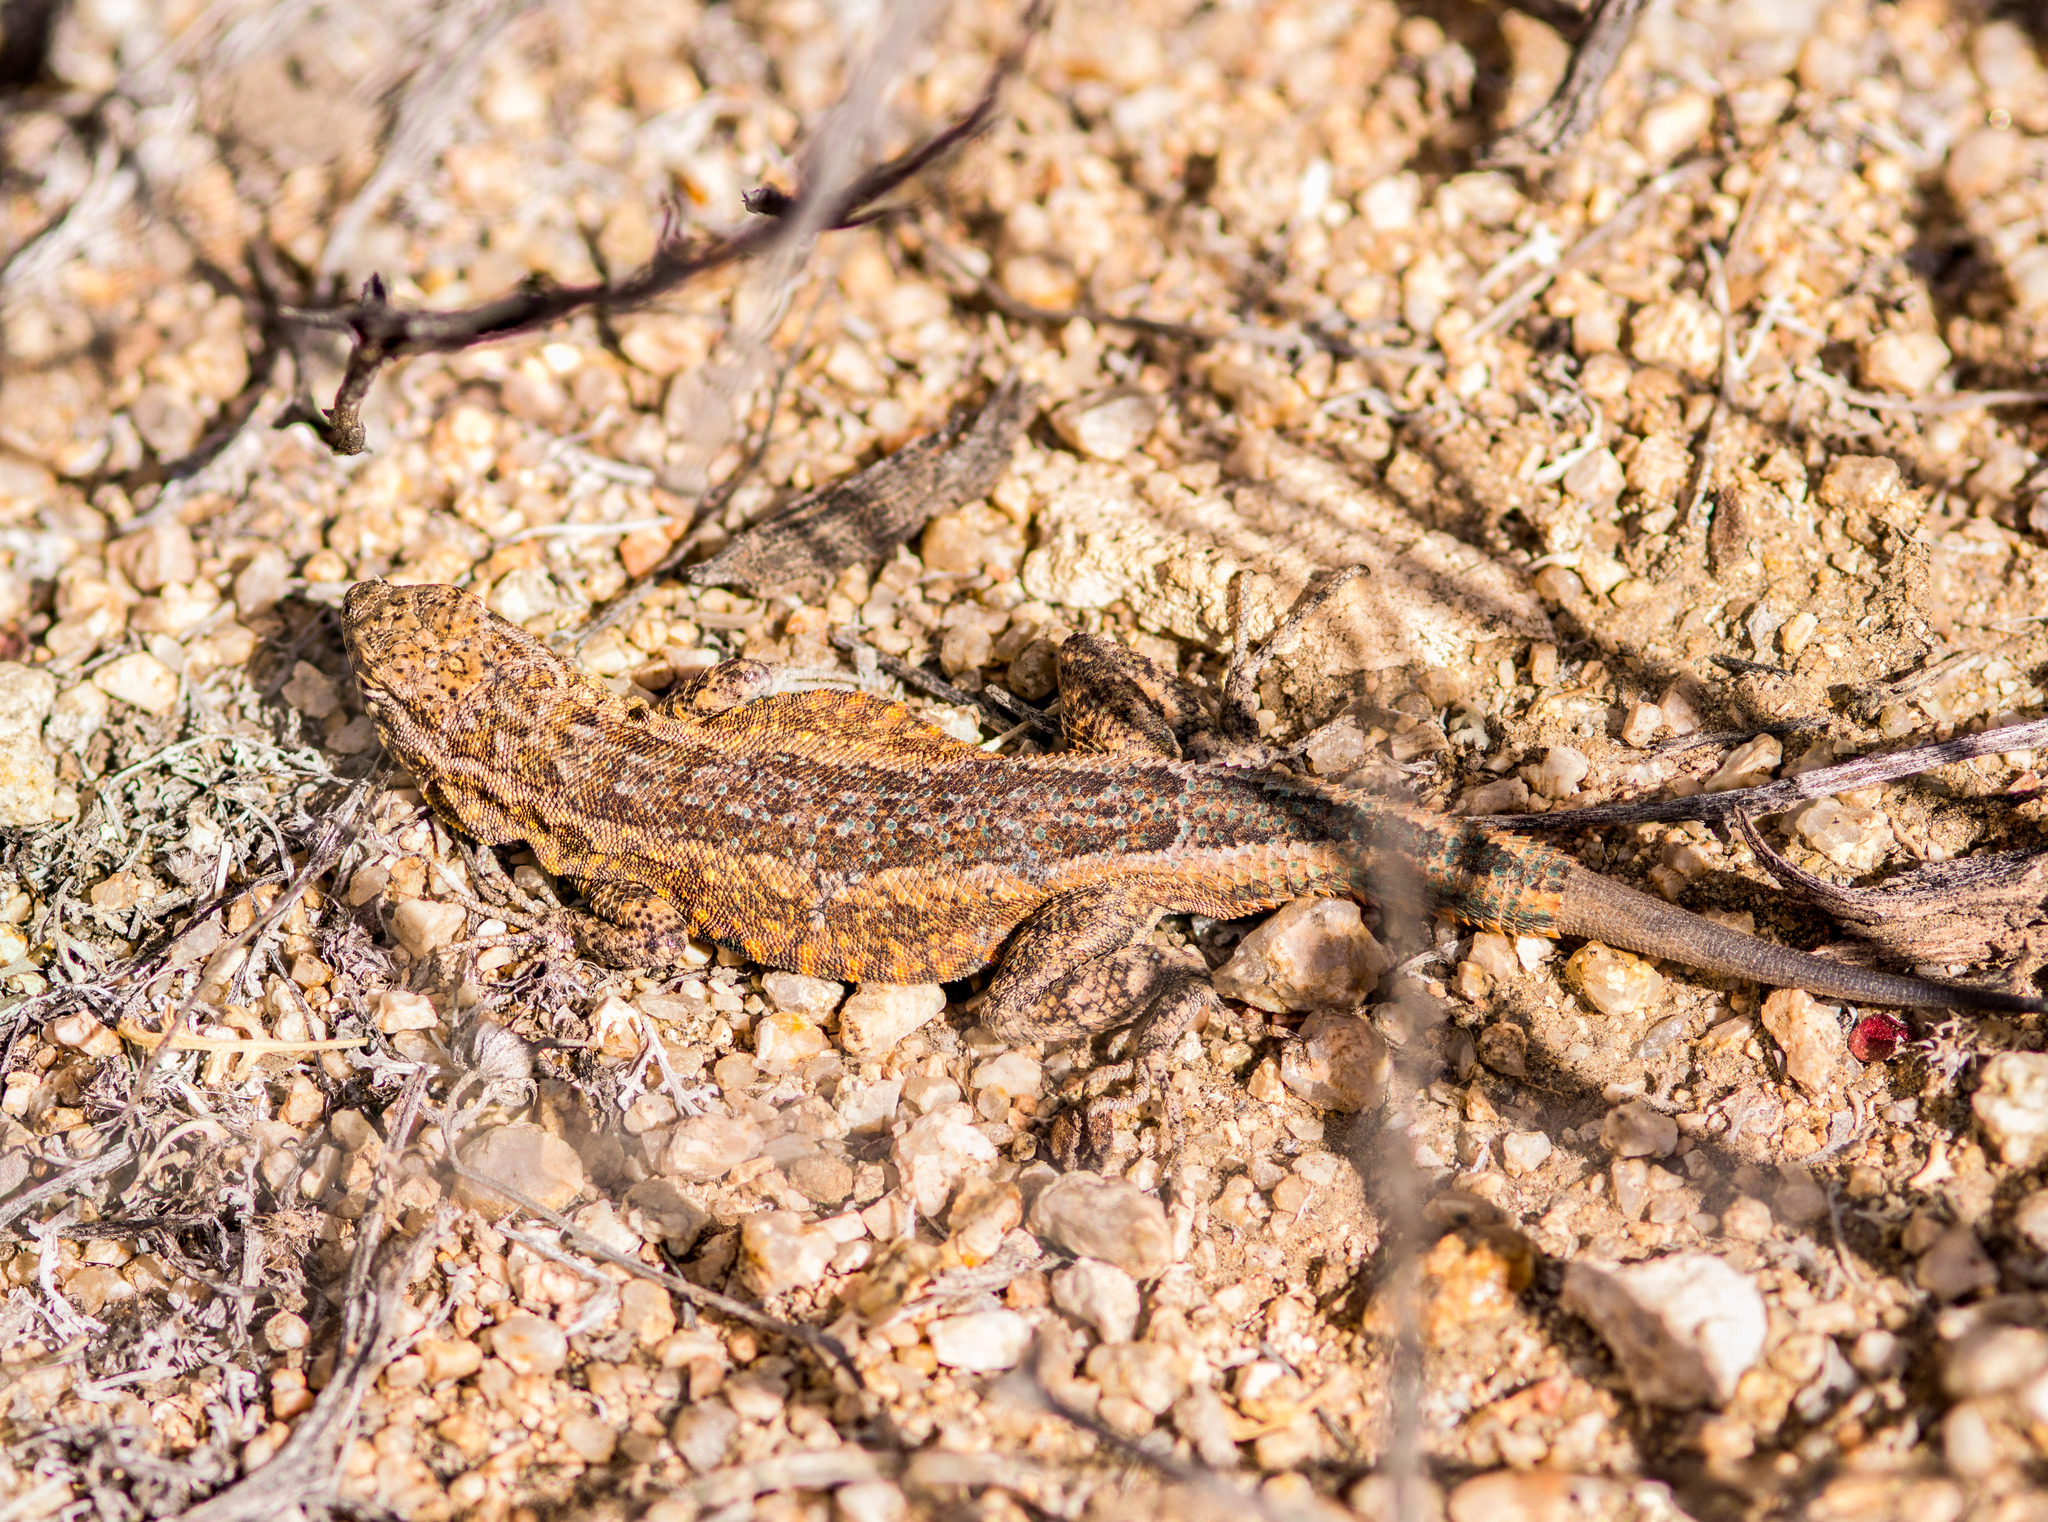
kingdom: Animalia
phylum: Chordata
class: Squamata
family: Phrynosomatidae
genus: Uta
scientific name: Uta stansburiana
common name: Side-blotched lizard
